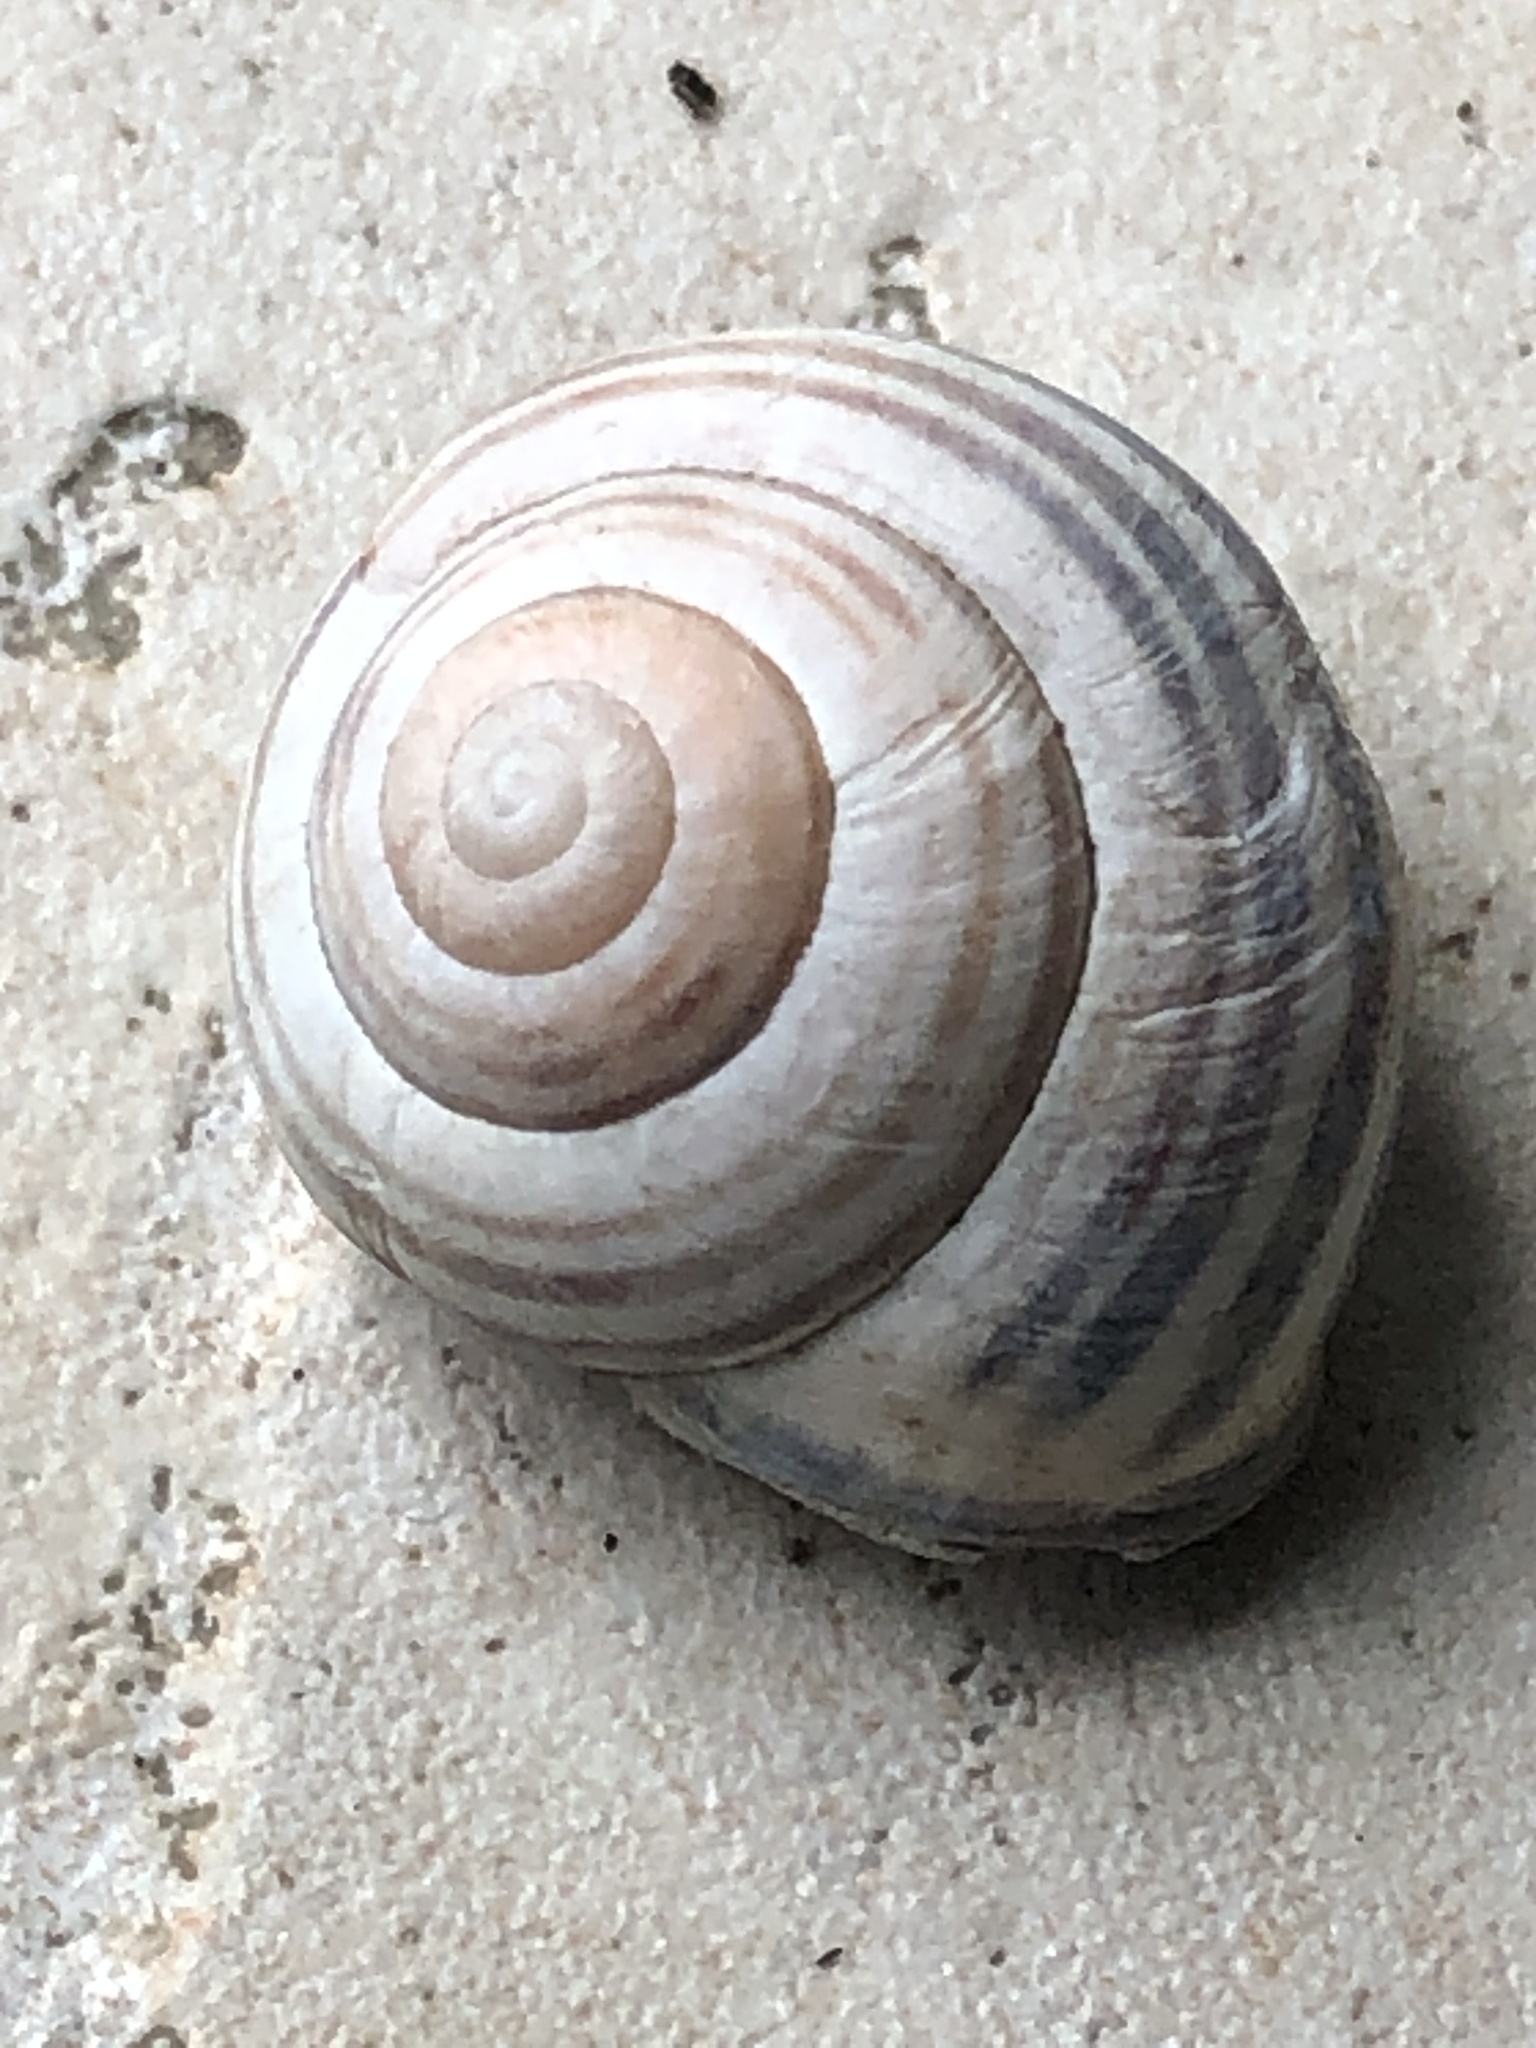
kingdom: Animalia
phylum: Mollusca
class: Gastropoda
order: Stylommatophora
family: Helicidae
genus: Cepaea
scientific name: Cepaea nemoralis
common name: Grovesnail
